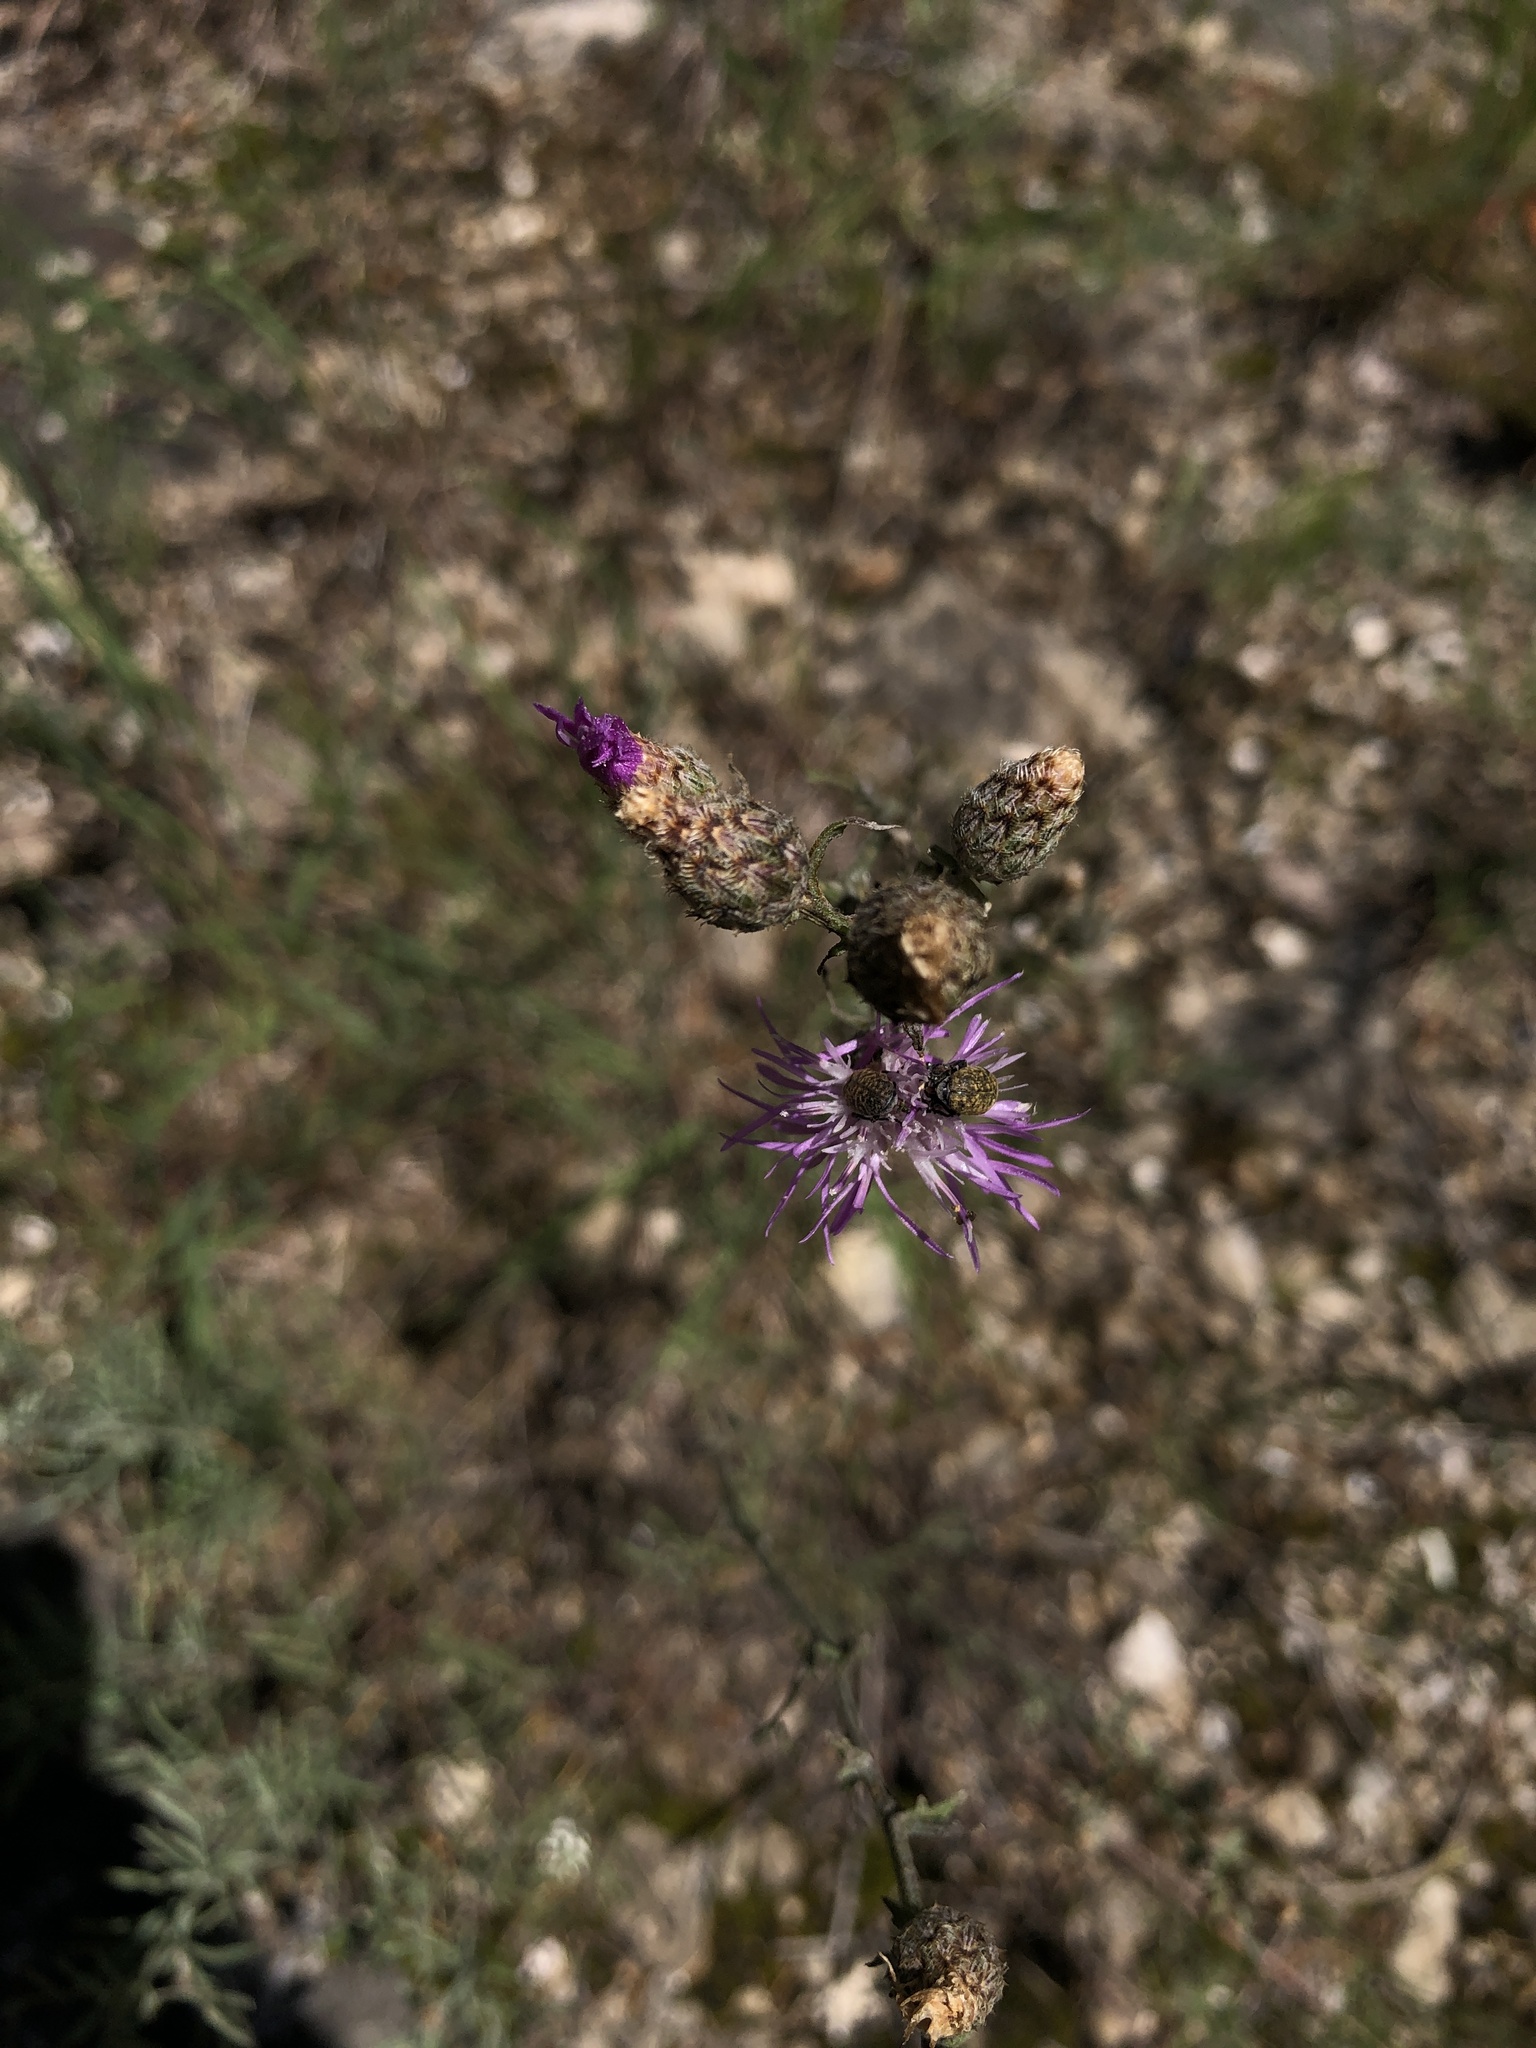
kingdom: Plantae
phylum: Tracheophyta
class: Magnoliopsida
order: Asterales
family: Asteraceae
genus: Centaurea
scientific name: Centaurea stoebe
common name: Spotted knapweed
